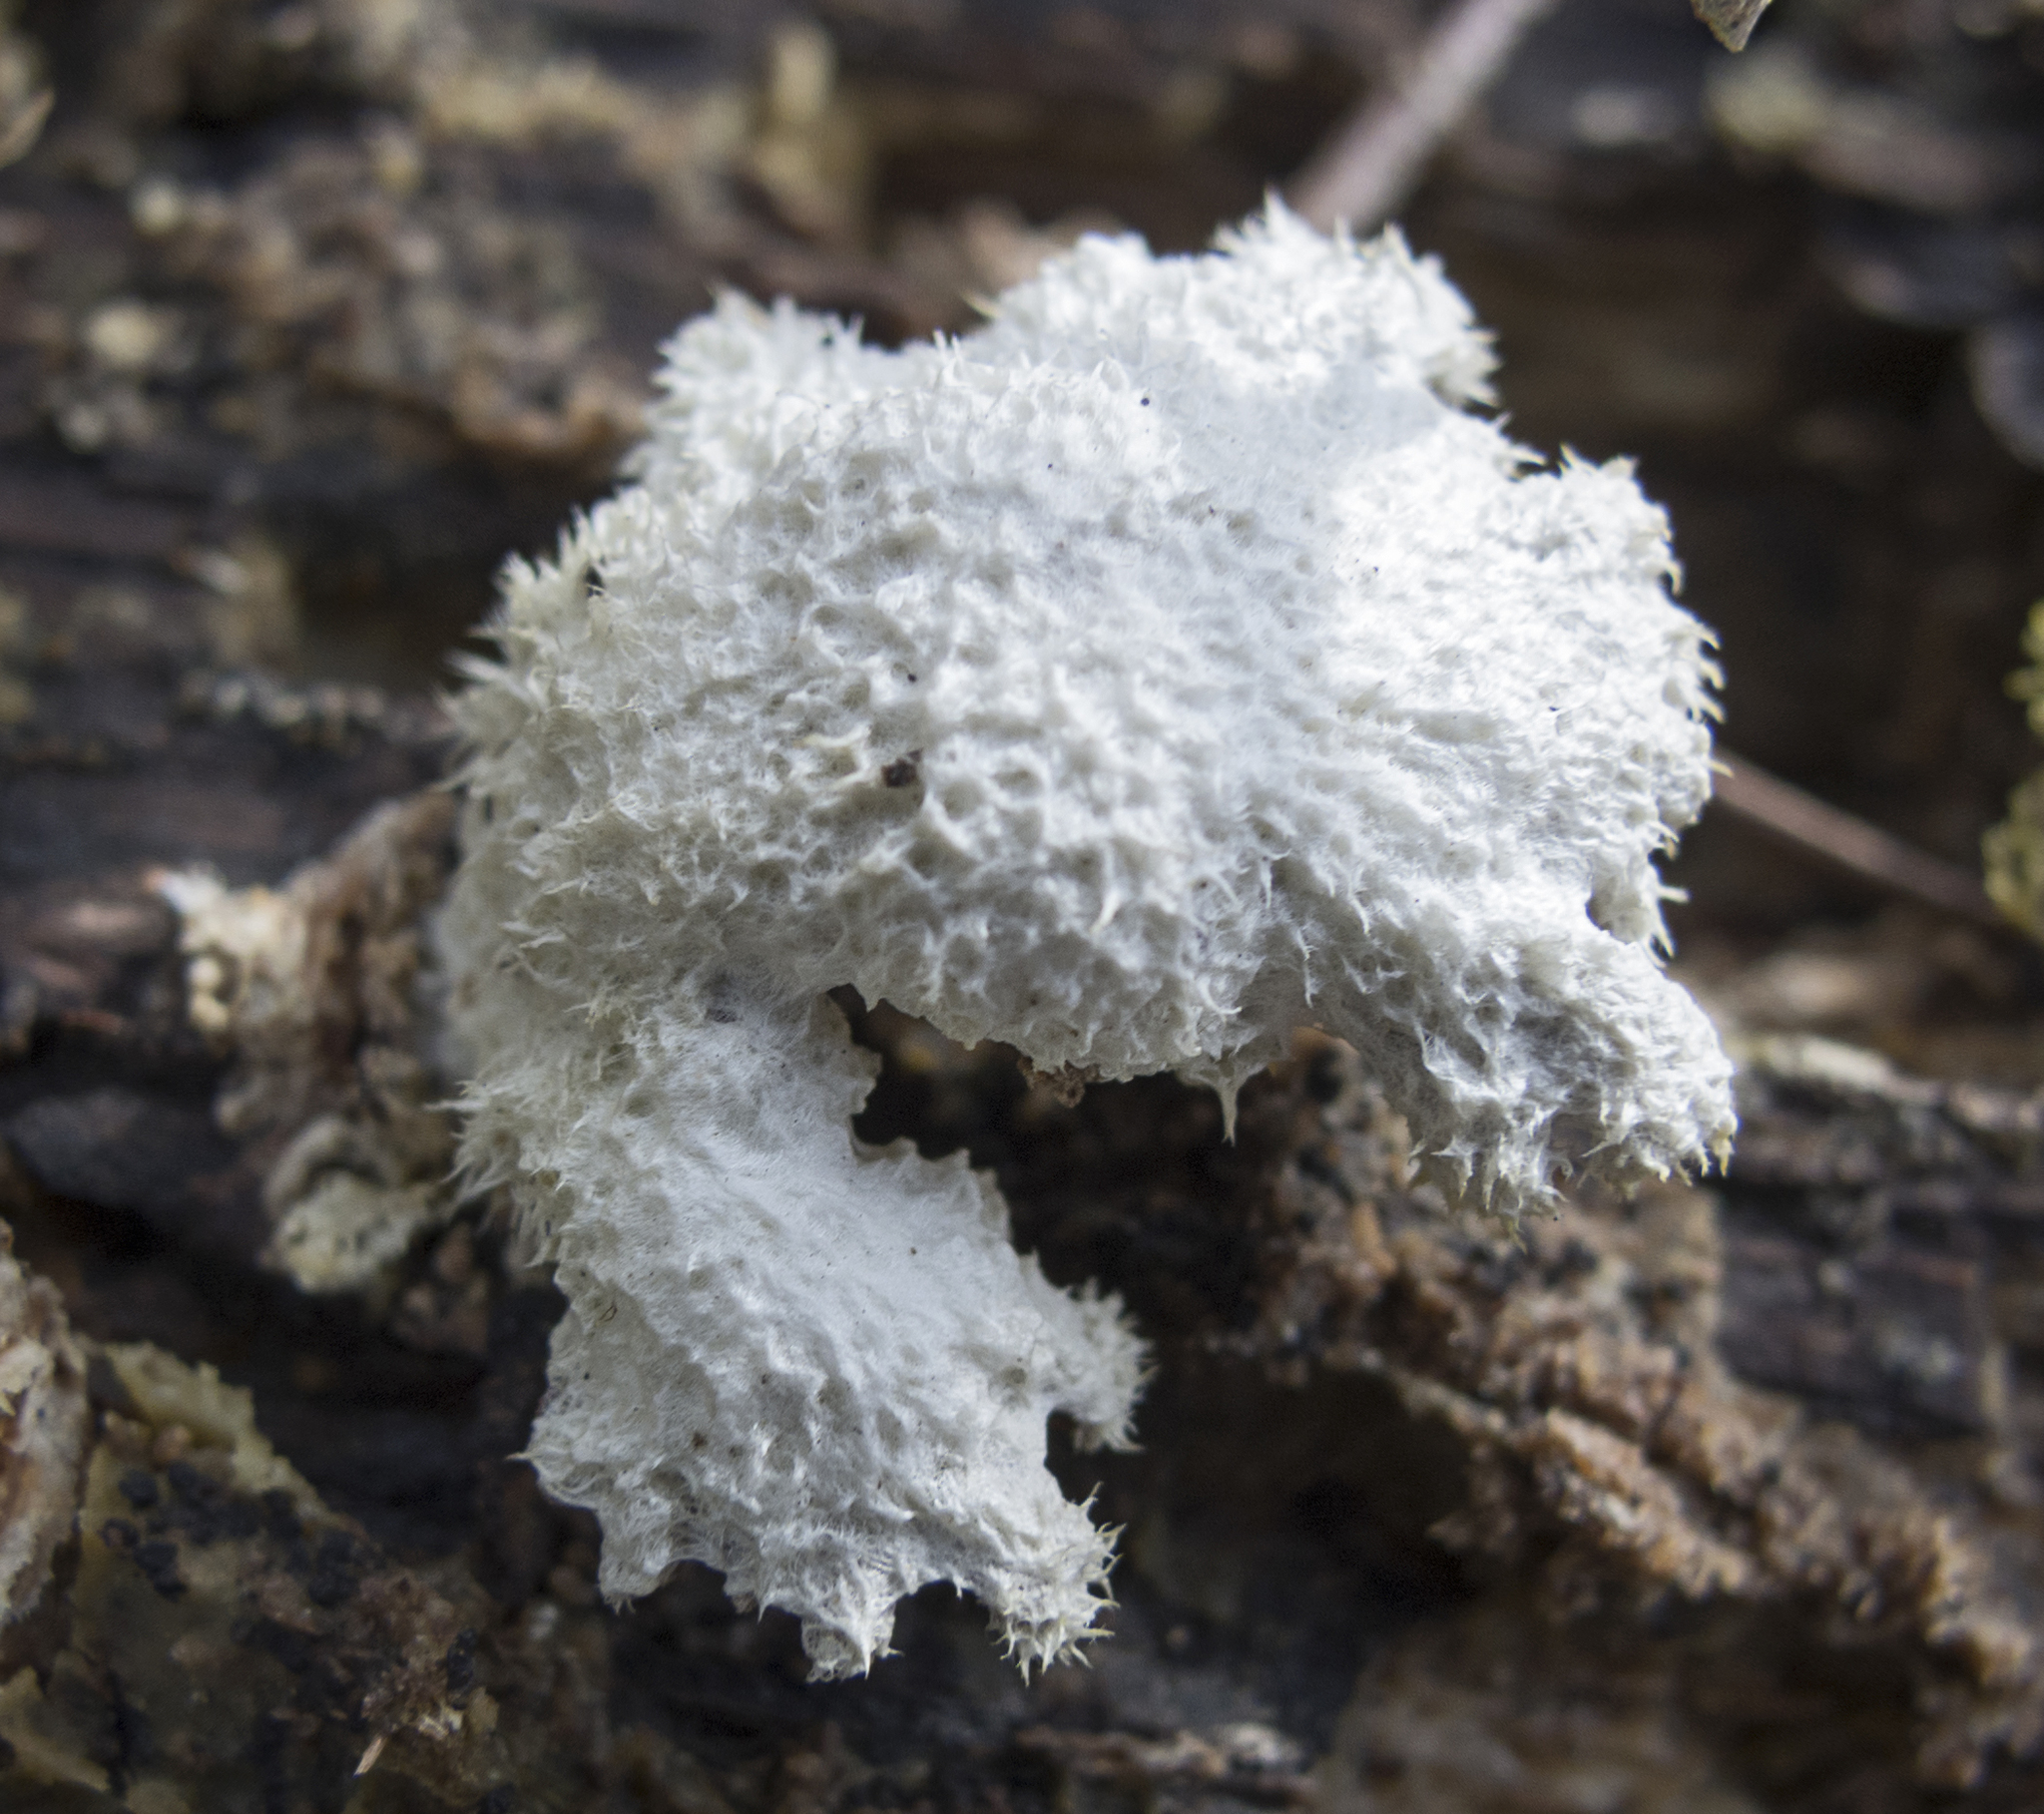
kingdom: Fungi
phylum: Basidiomycota
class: Agaricomycetes
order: Agaricales
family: Schizophyllaceae
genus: Schizophyllum
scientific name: Schizophyllum commune
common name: Common porecrust
